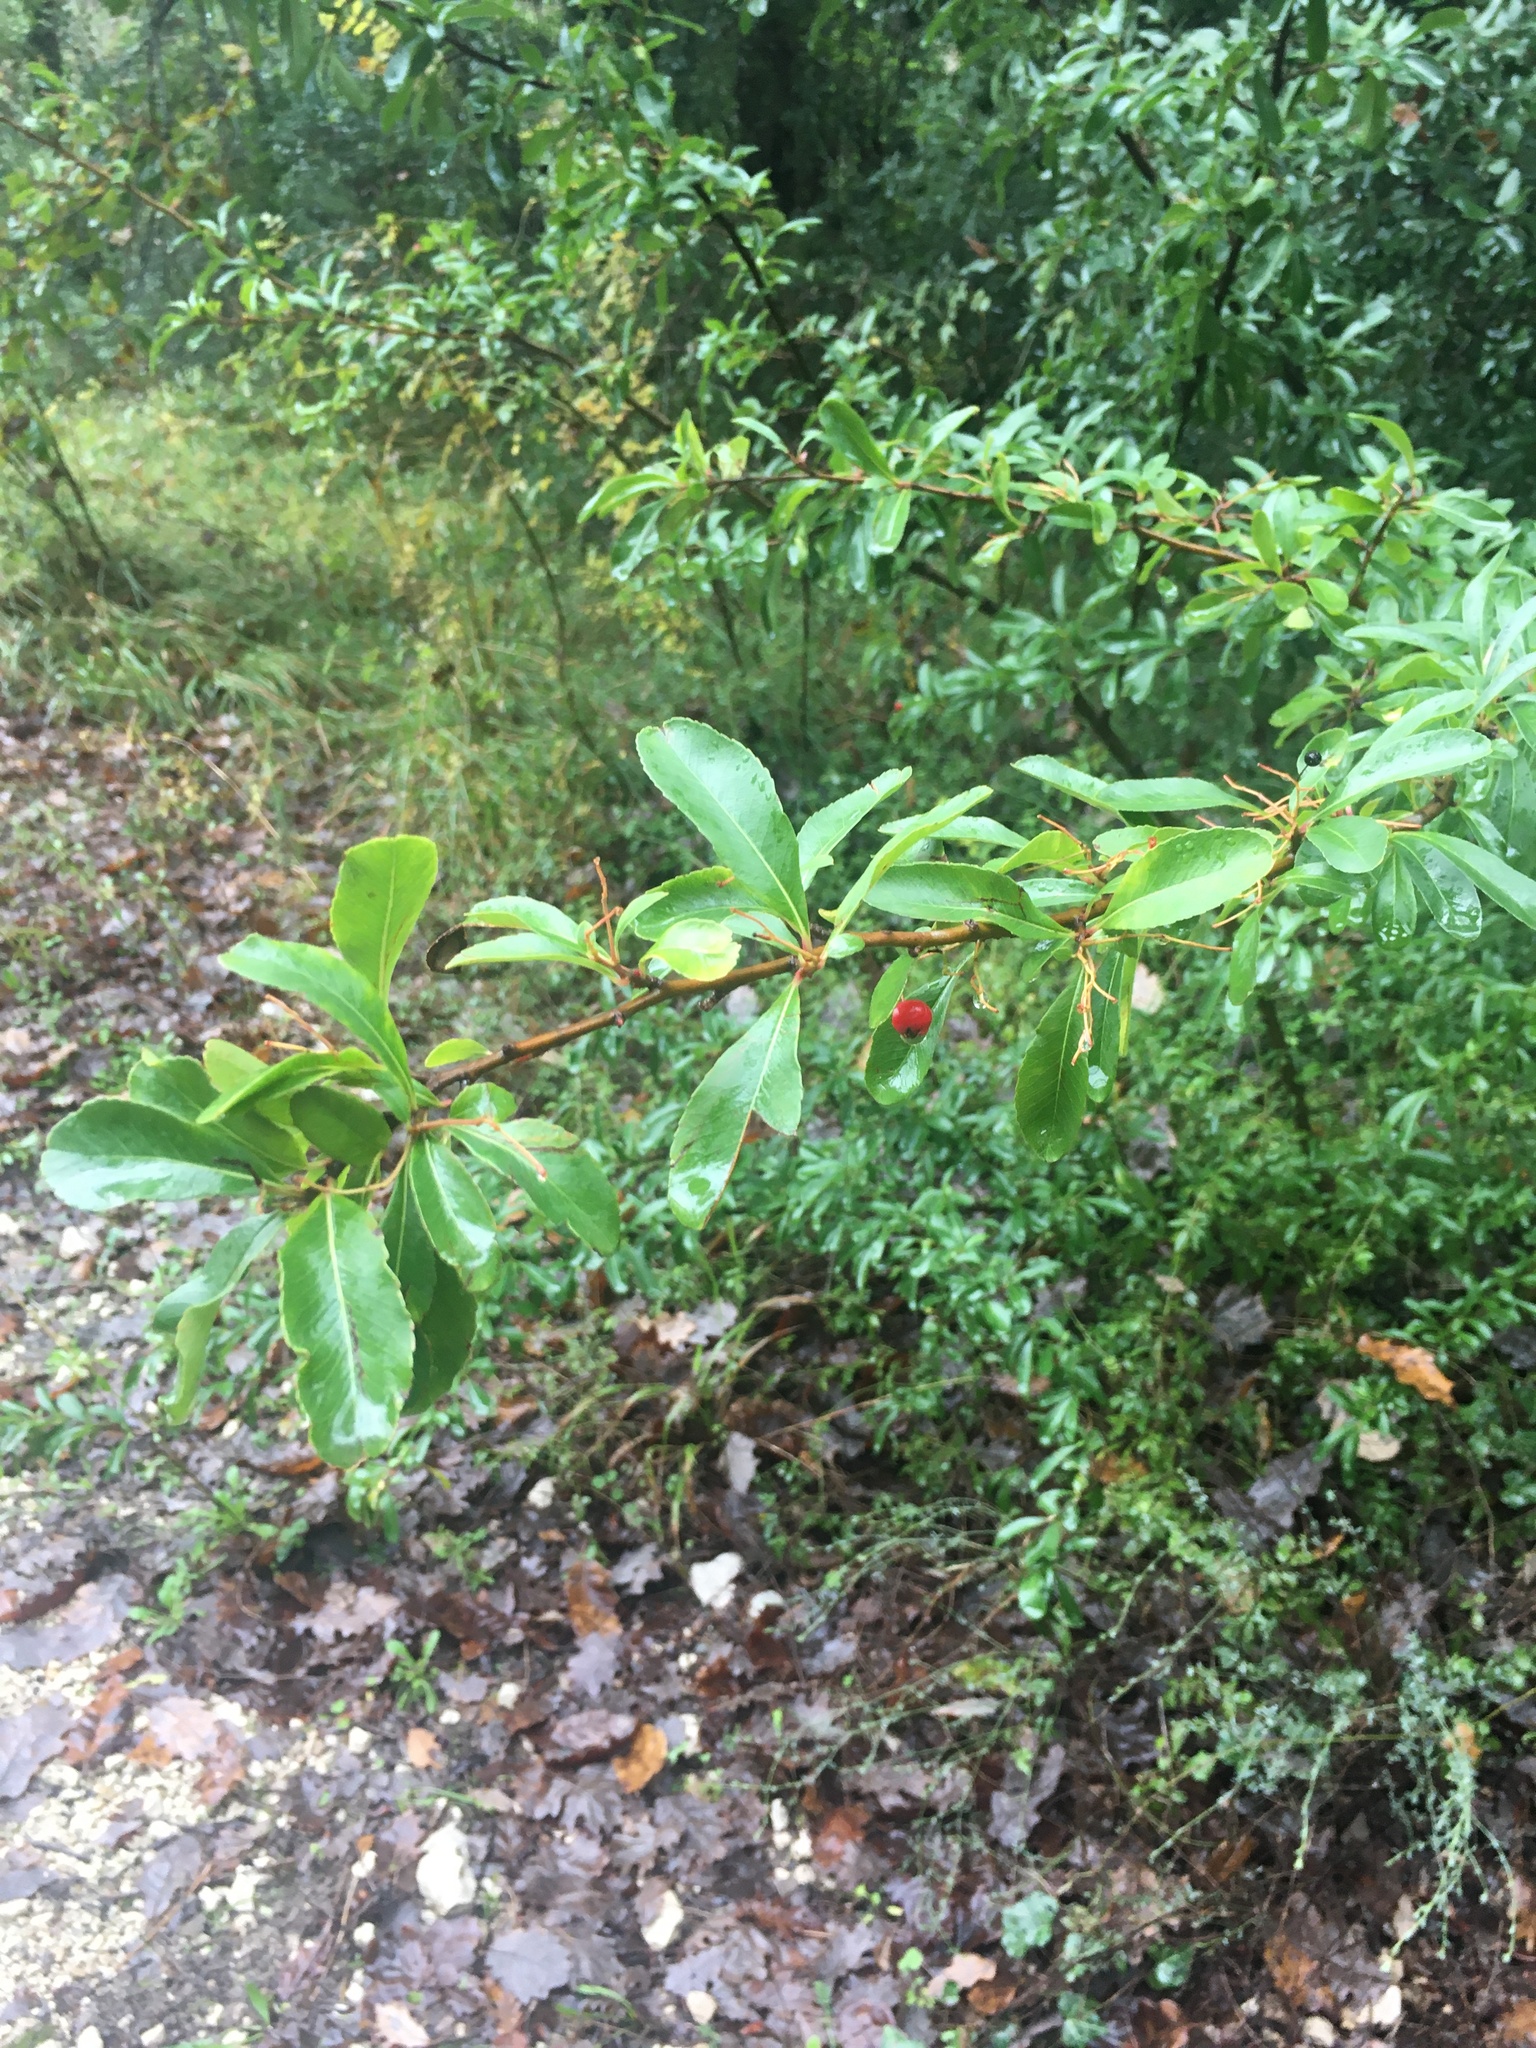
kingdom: Plantae
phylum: Tracheophyta
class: Magnoliopsida
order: Rosales
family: Rosaceae
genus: Pyracantha
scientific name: Pyracantha coccinea
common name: Firethorn
